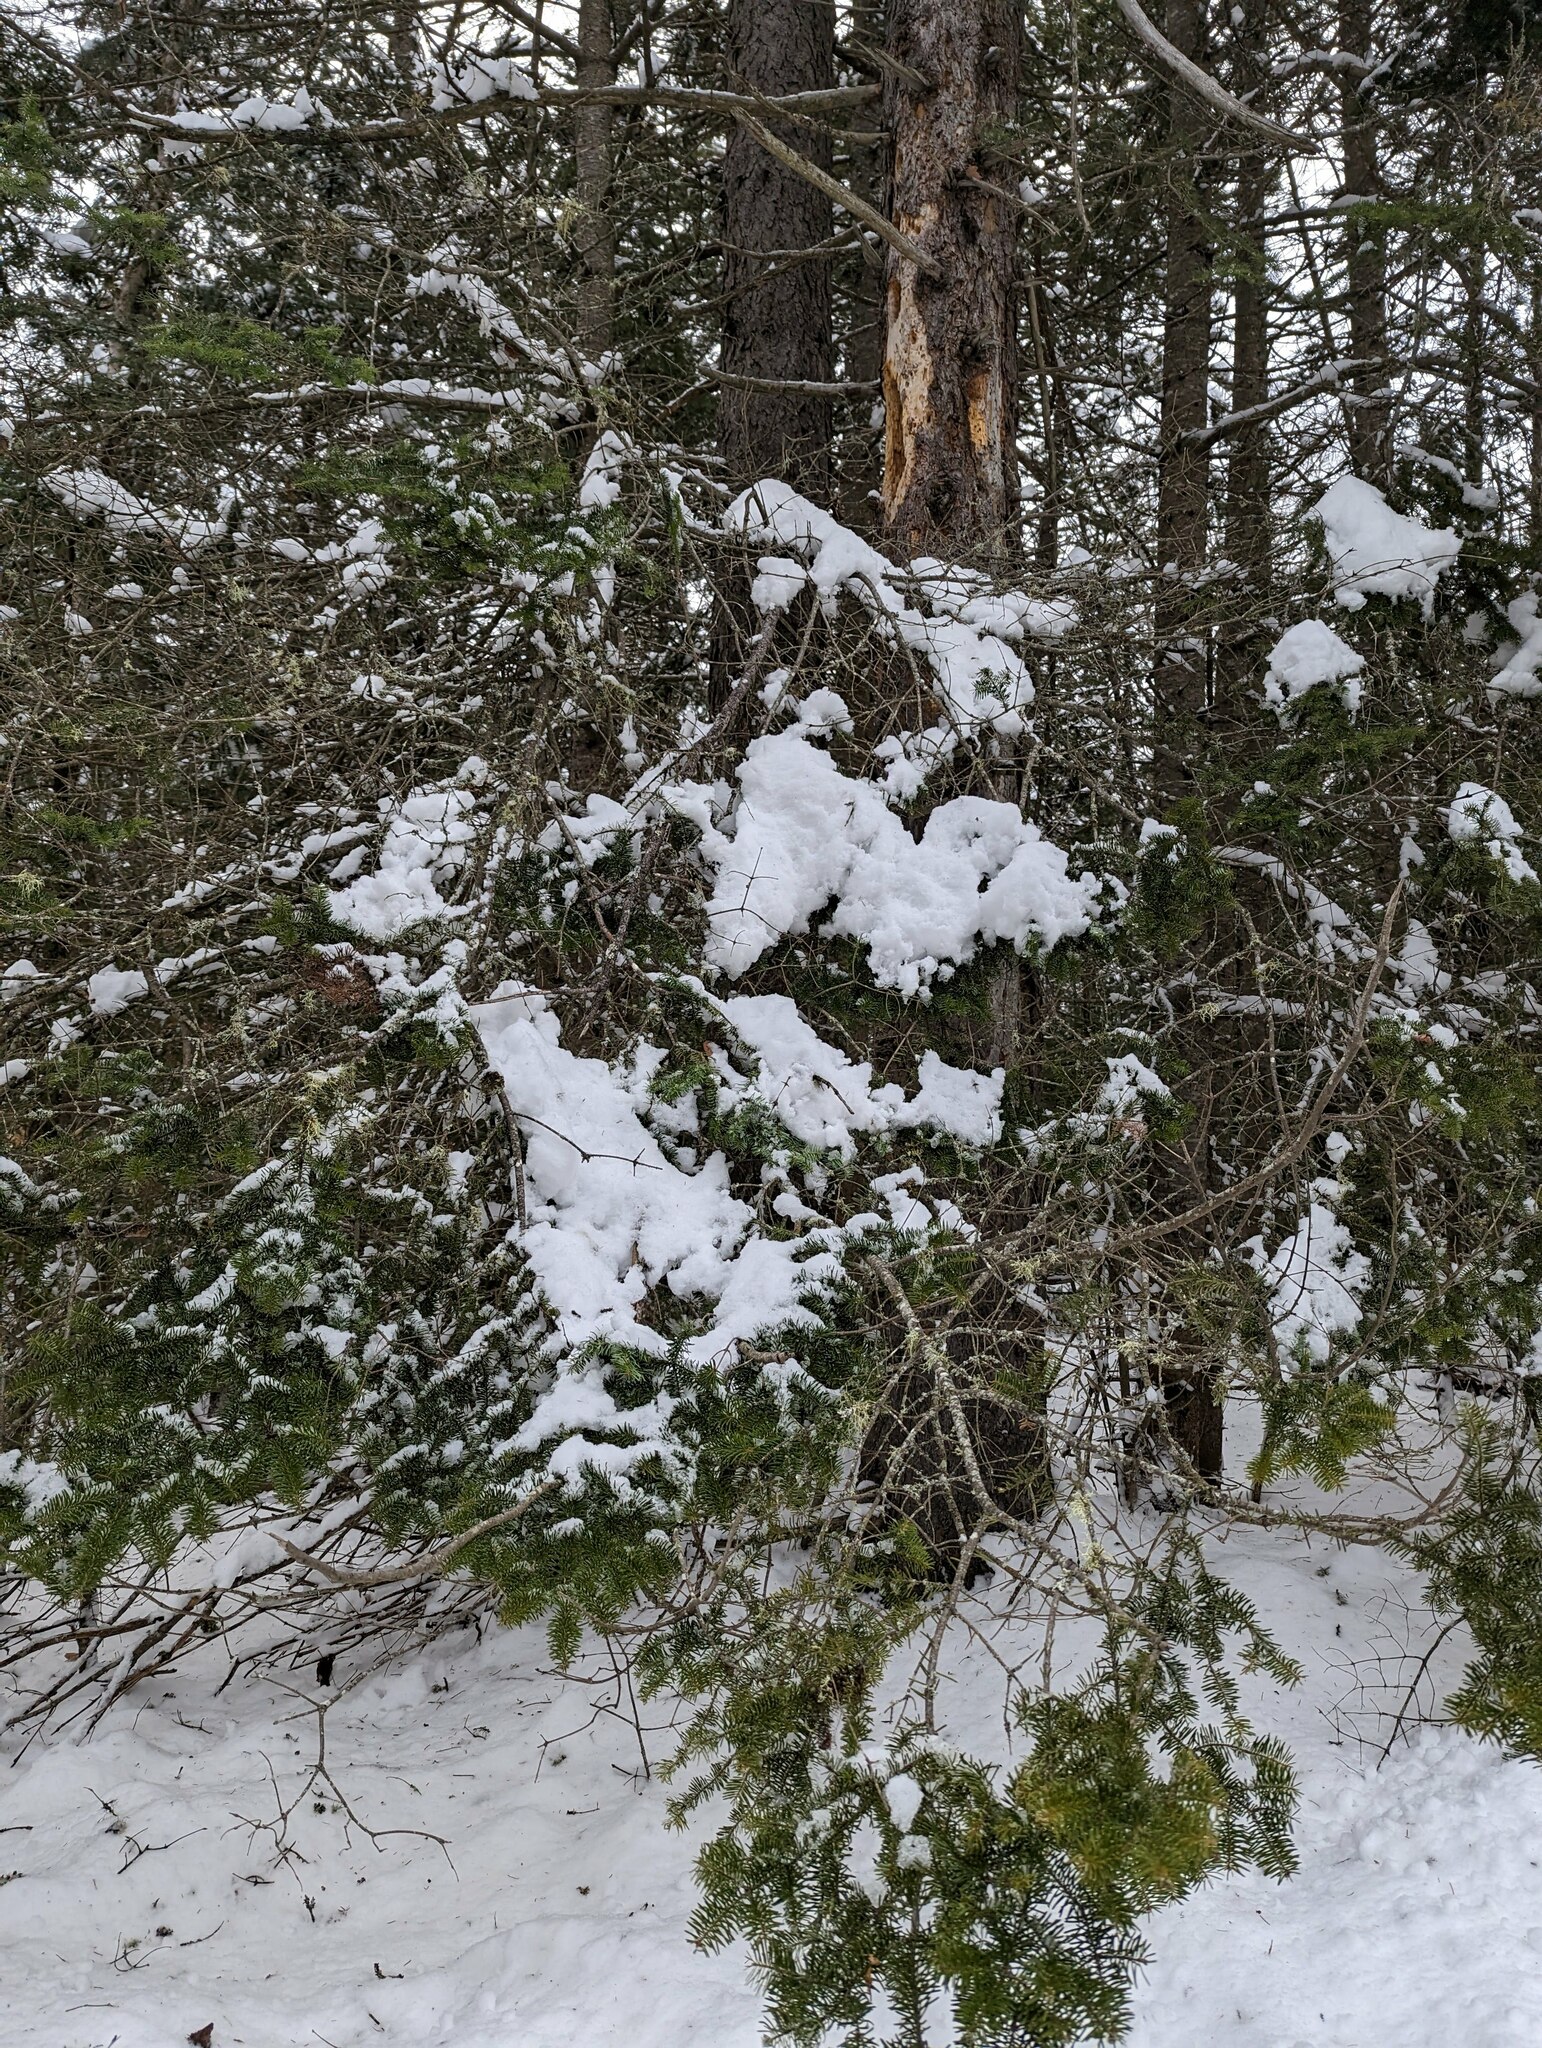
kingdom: Plantae
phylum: Tracheophyta
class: Pinopsida
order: Pinales
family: Pinaceae
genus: Abies
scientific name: Abies balsamea
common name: Balsam fir
